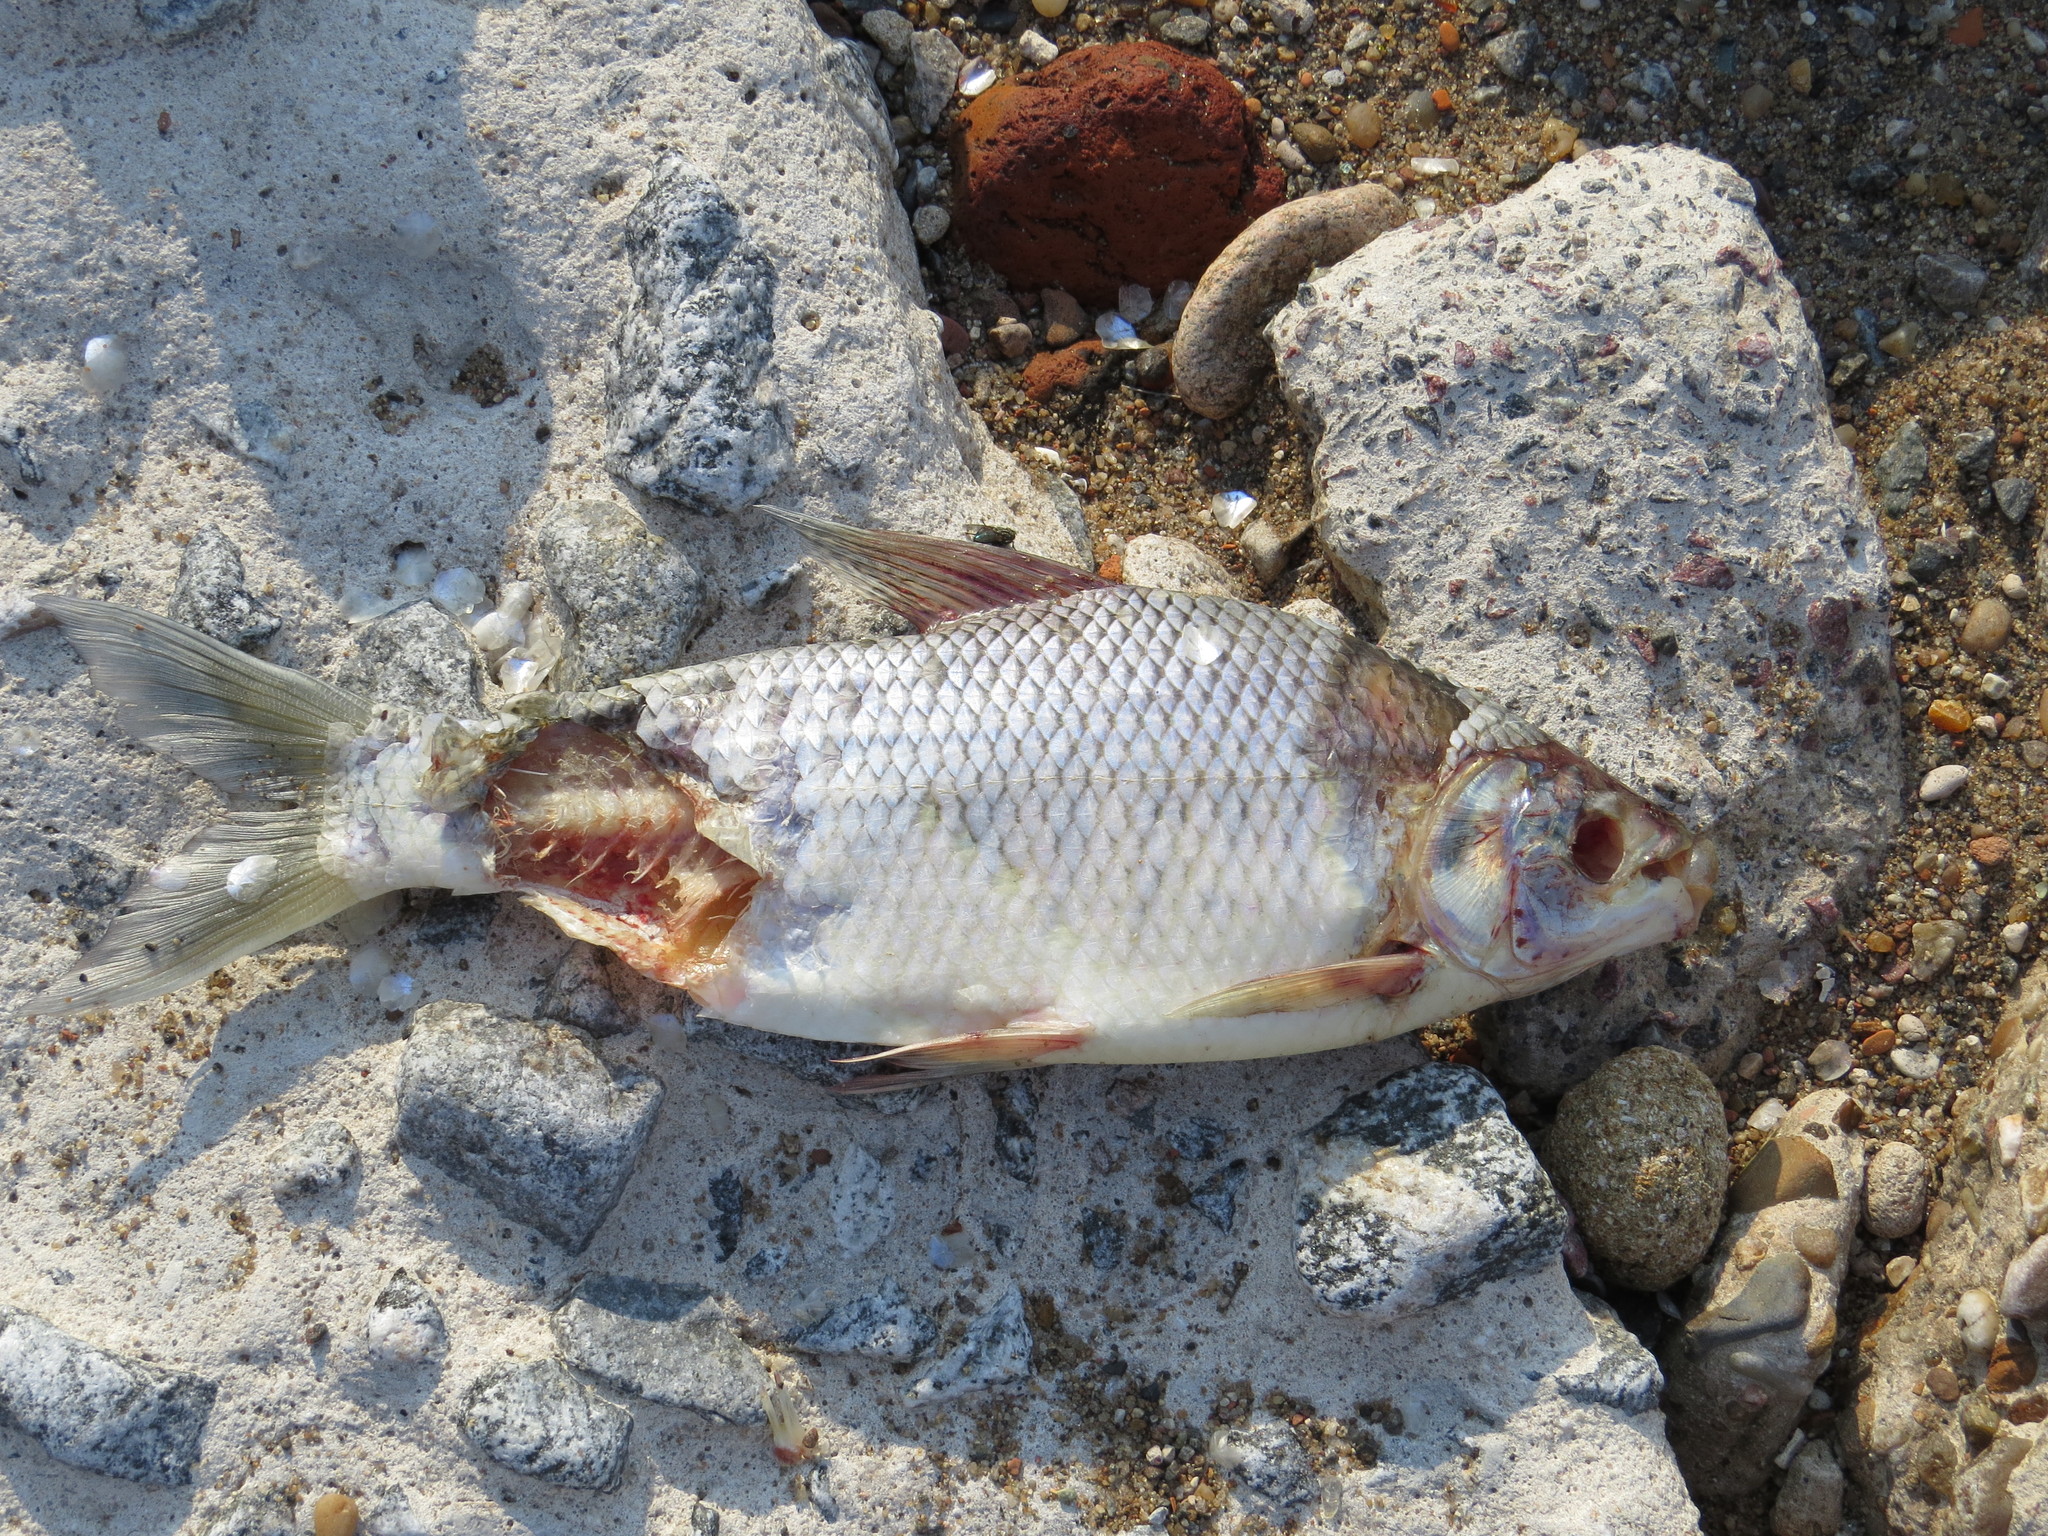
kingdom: Animalia
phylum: Chordata
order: Characiformes
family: Prochilodontidae
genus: Prochilodus
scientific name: Prochilodus lineatus
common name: Curimbata
